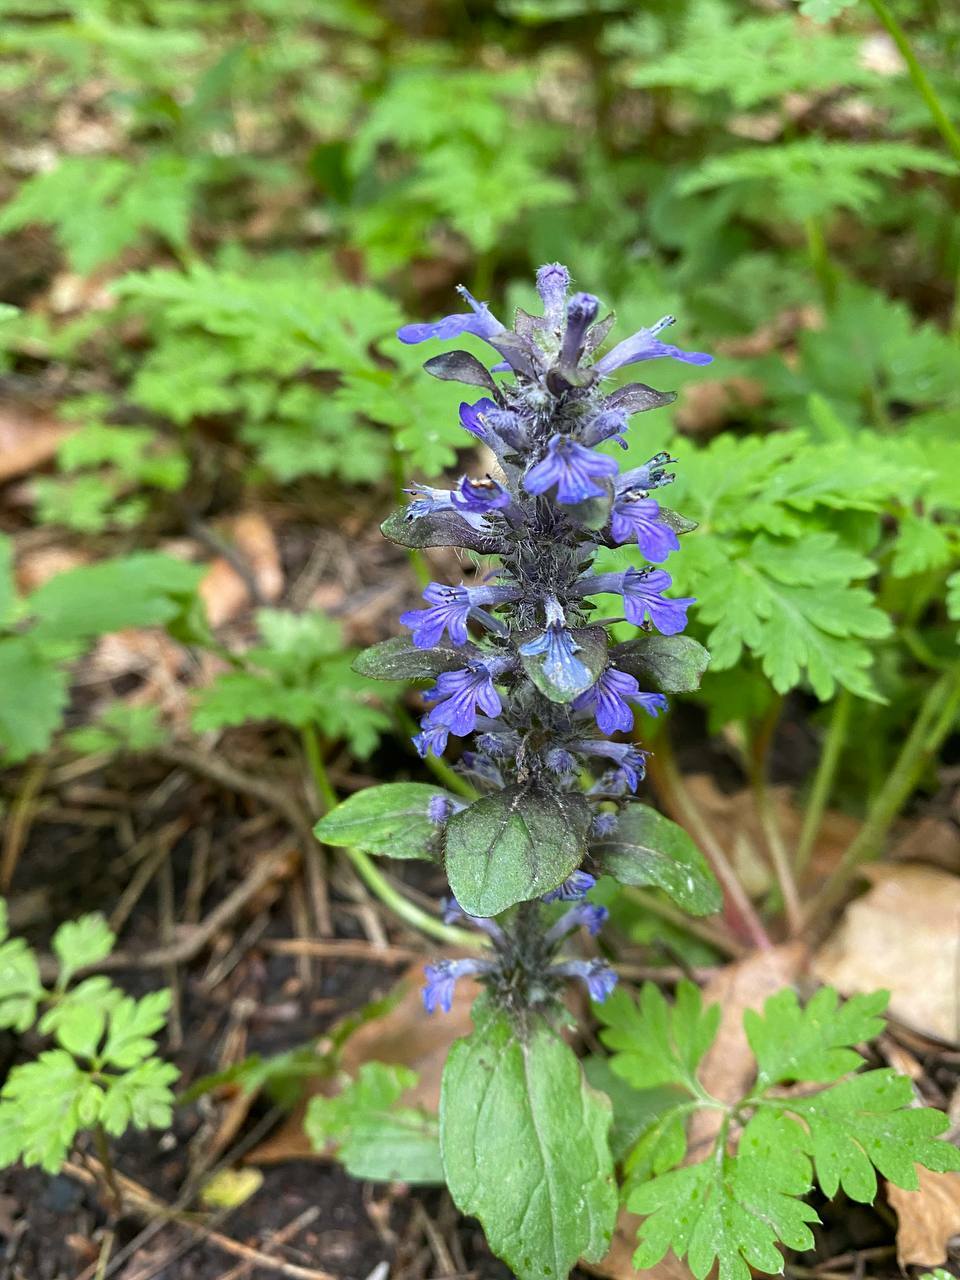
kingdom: Plantae
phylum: Tracheophyta
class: Magnoliopsida
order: Lamiales
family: Lamiaceae
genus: Ajuga
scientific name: Ajuga reptans
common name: Bugle
